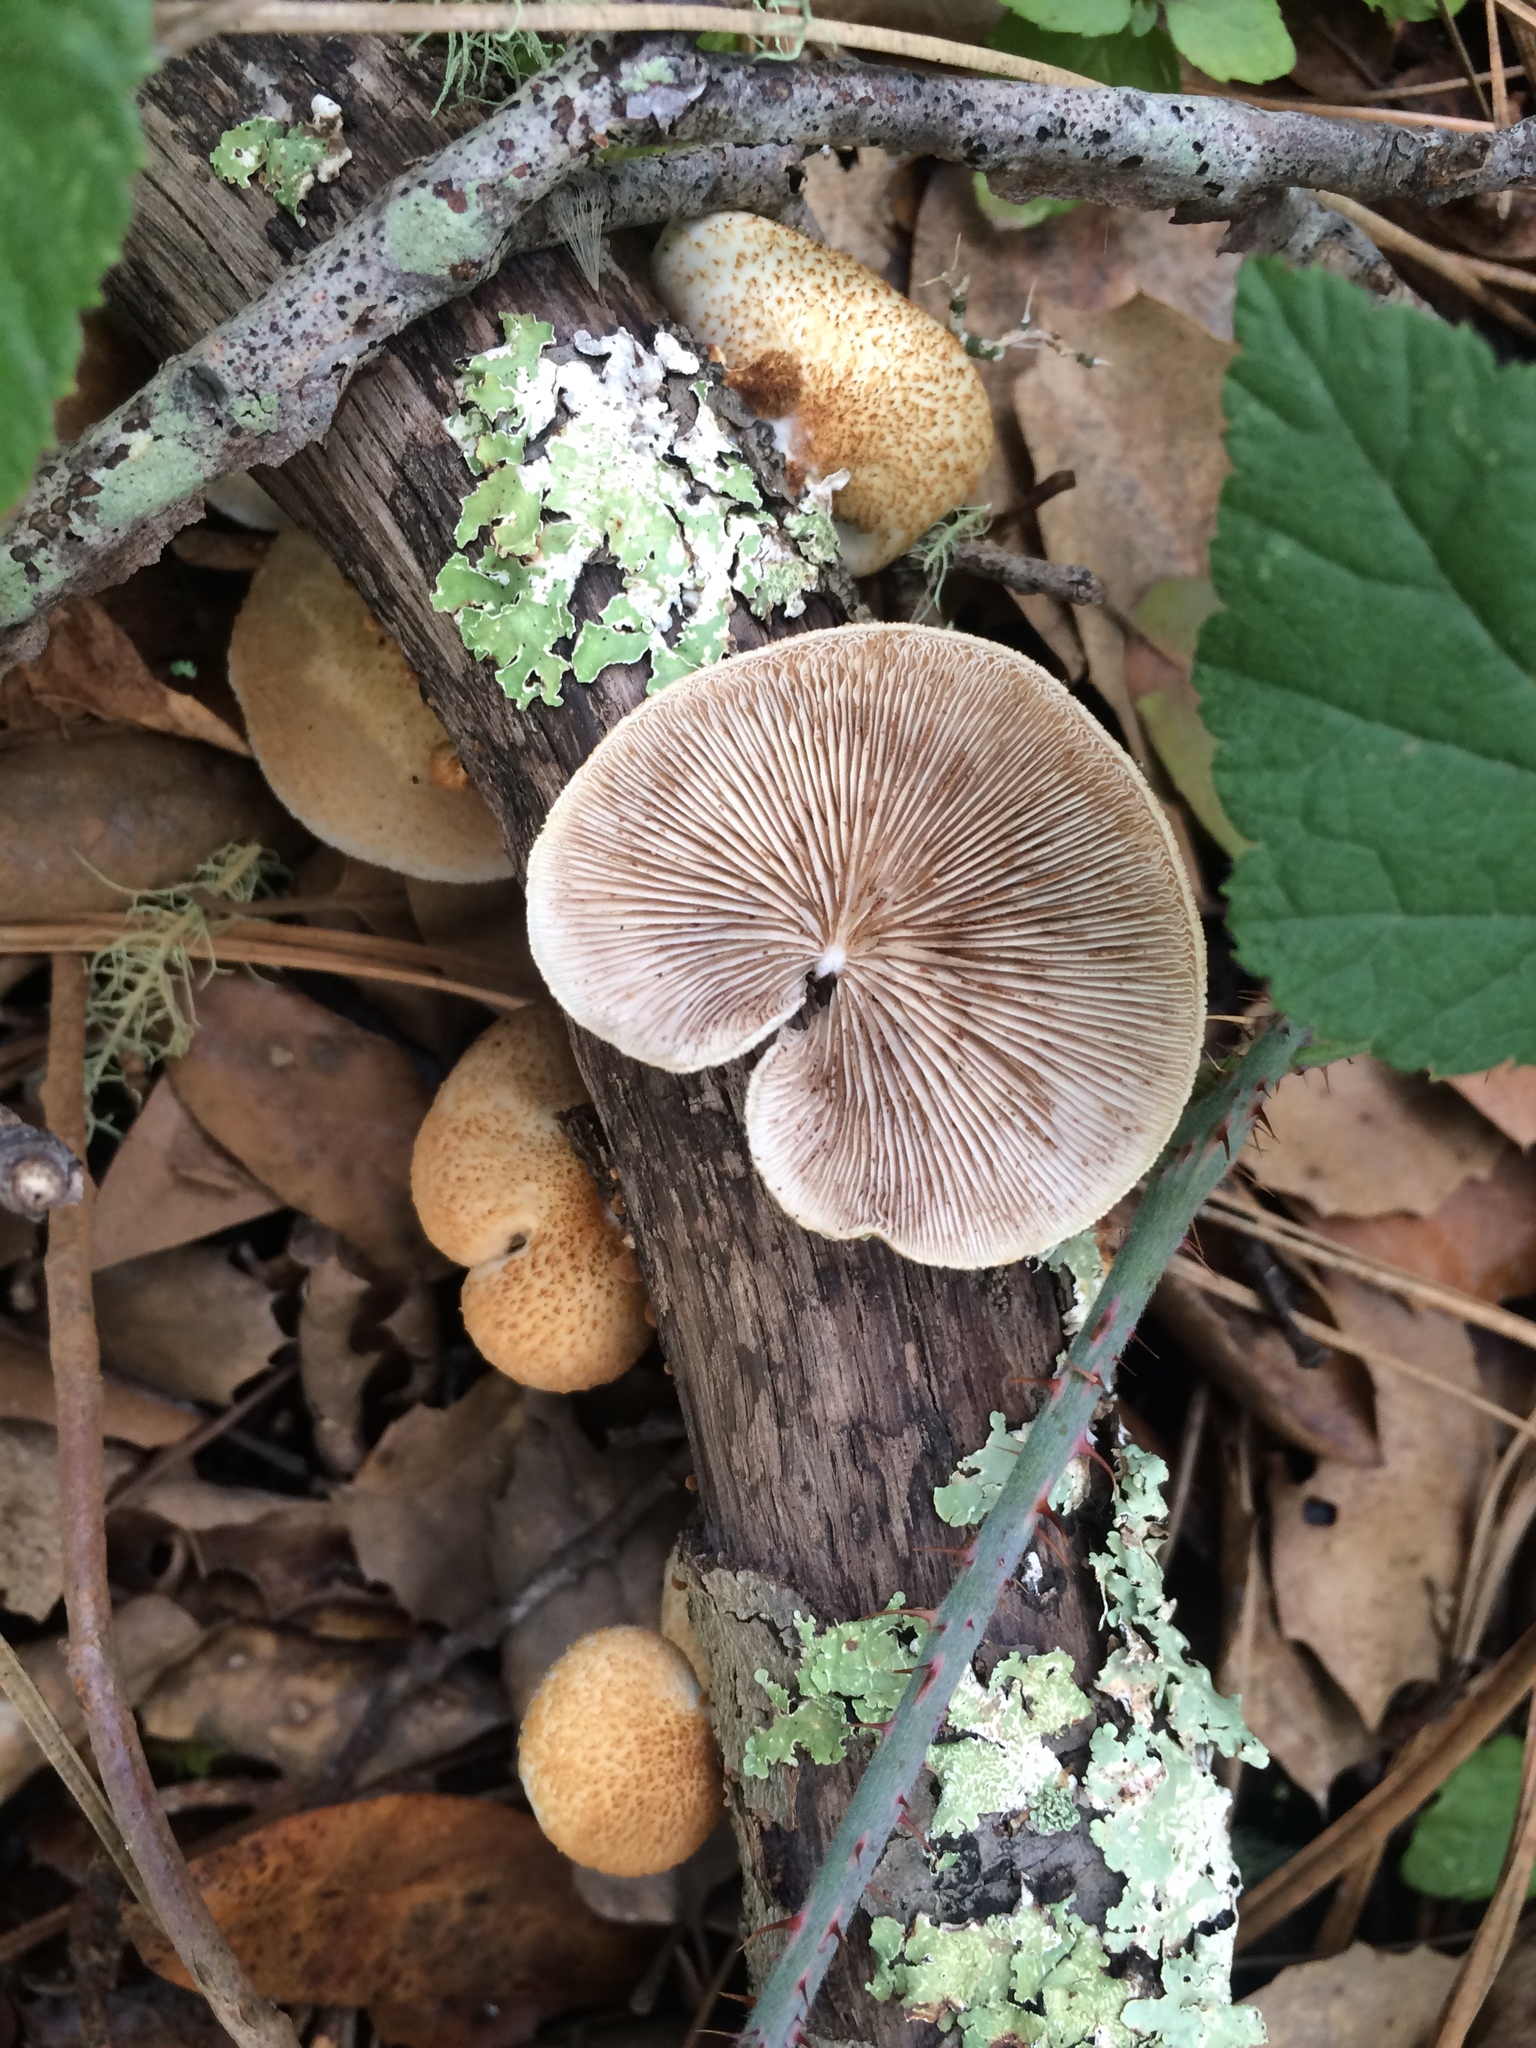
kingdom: Fungi
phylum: Basidiomycota
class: Agaricomycetes
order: Agaricales
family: Crepidotaceae
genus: Crepidotus
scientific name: Crepidotus mollis
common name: Peeling oysterling
